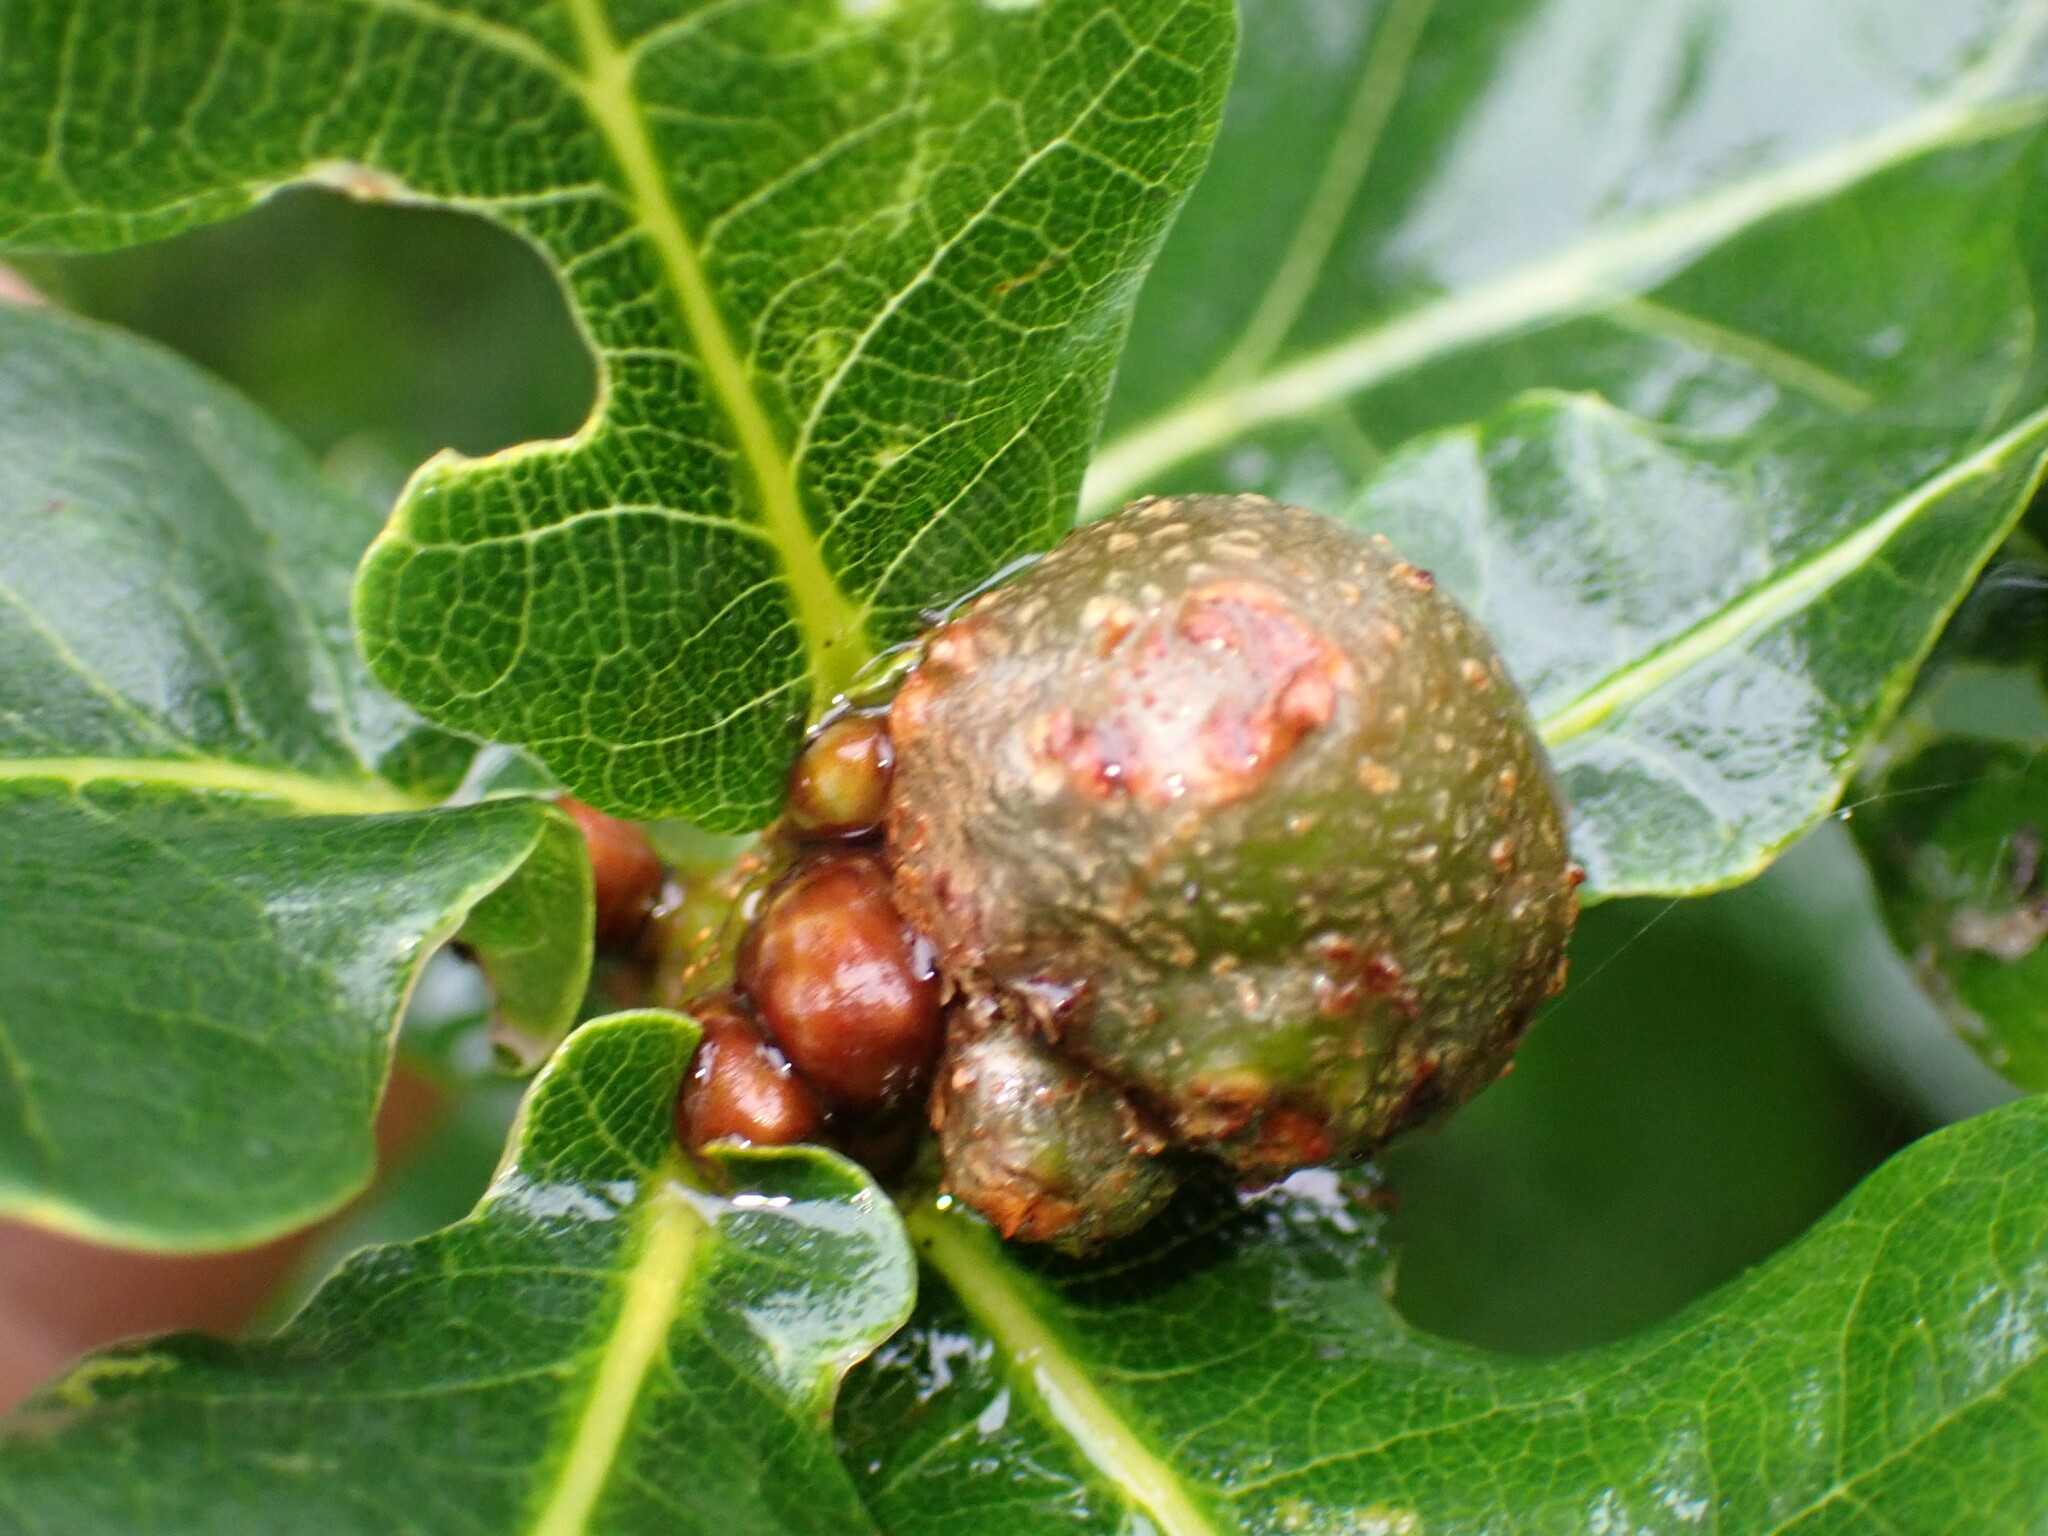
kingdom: Animalia
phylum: Arthropoda
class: Insecta
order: Hymenoptera
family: Cynipidae
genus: Andricus
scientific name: Andricus lignicolus
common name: Cola-nut gall
